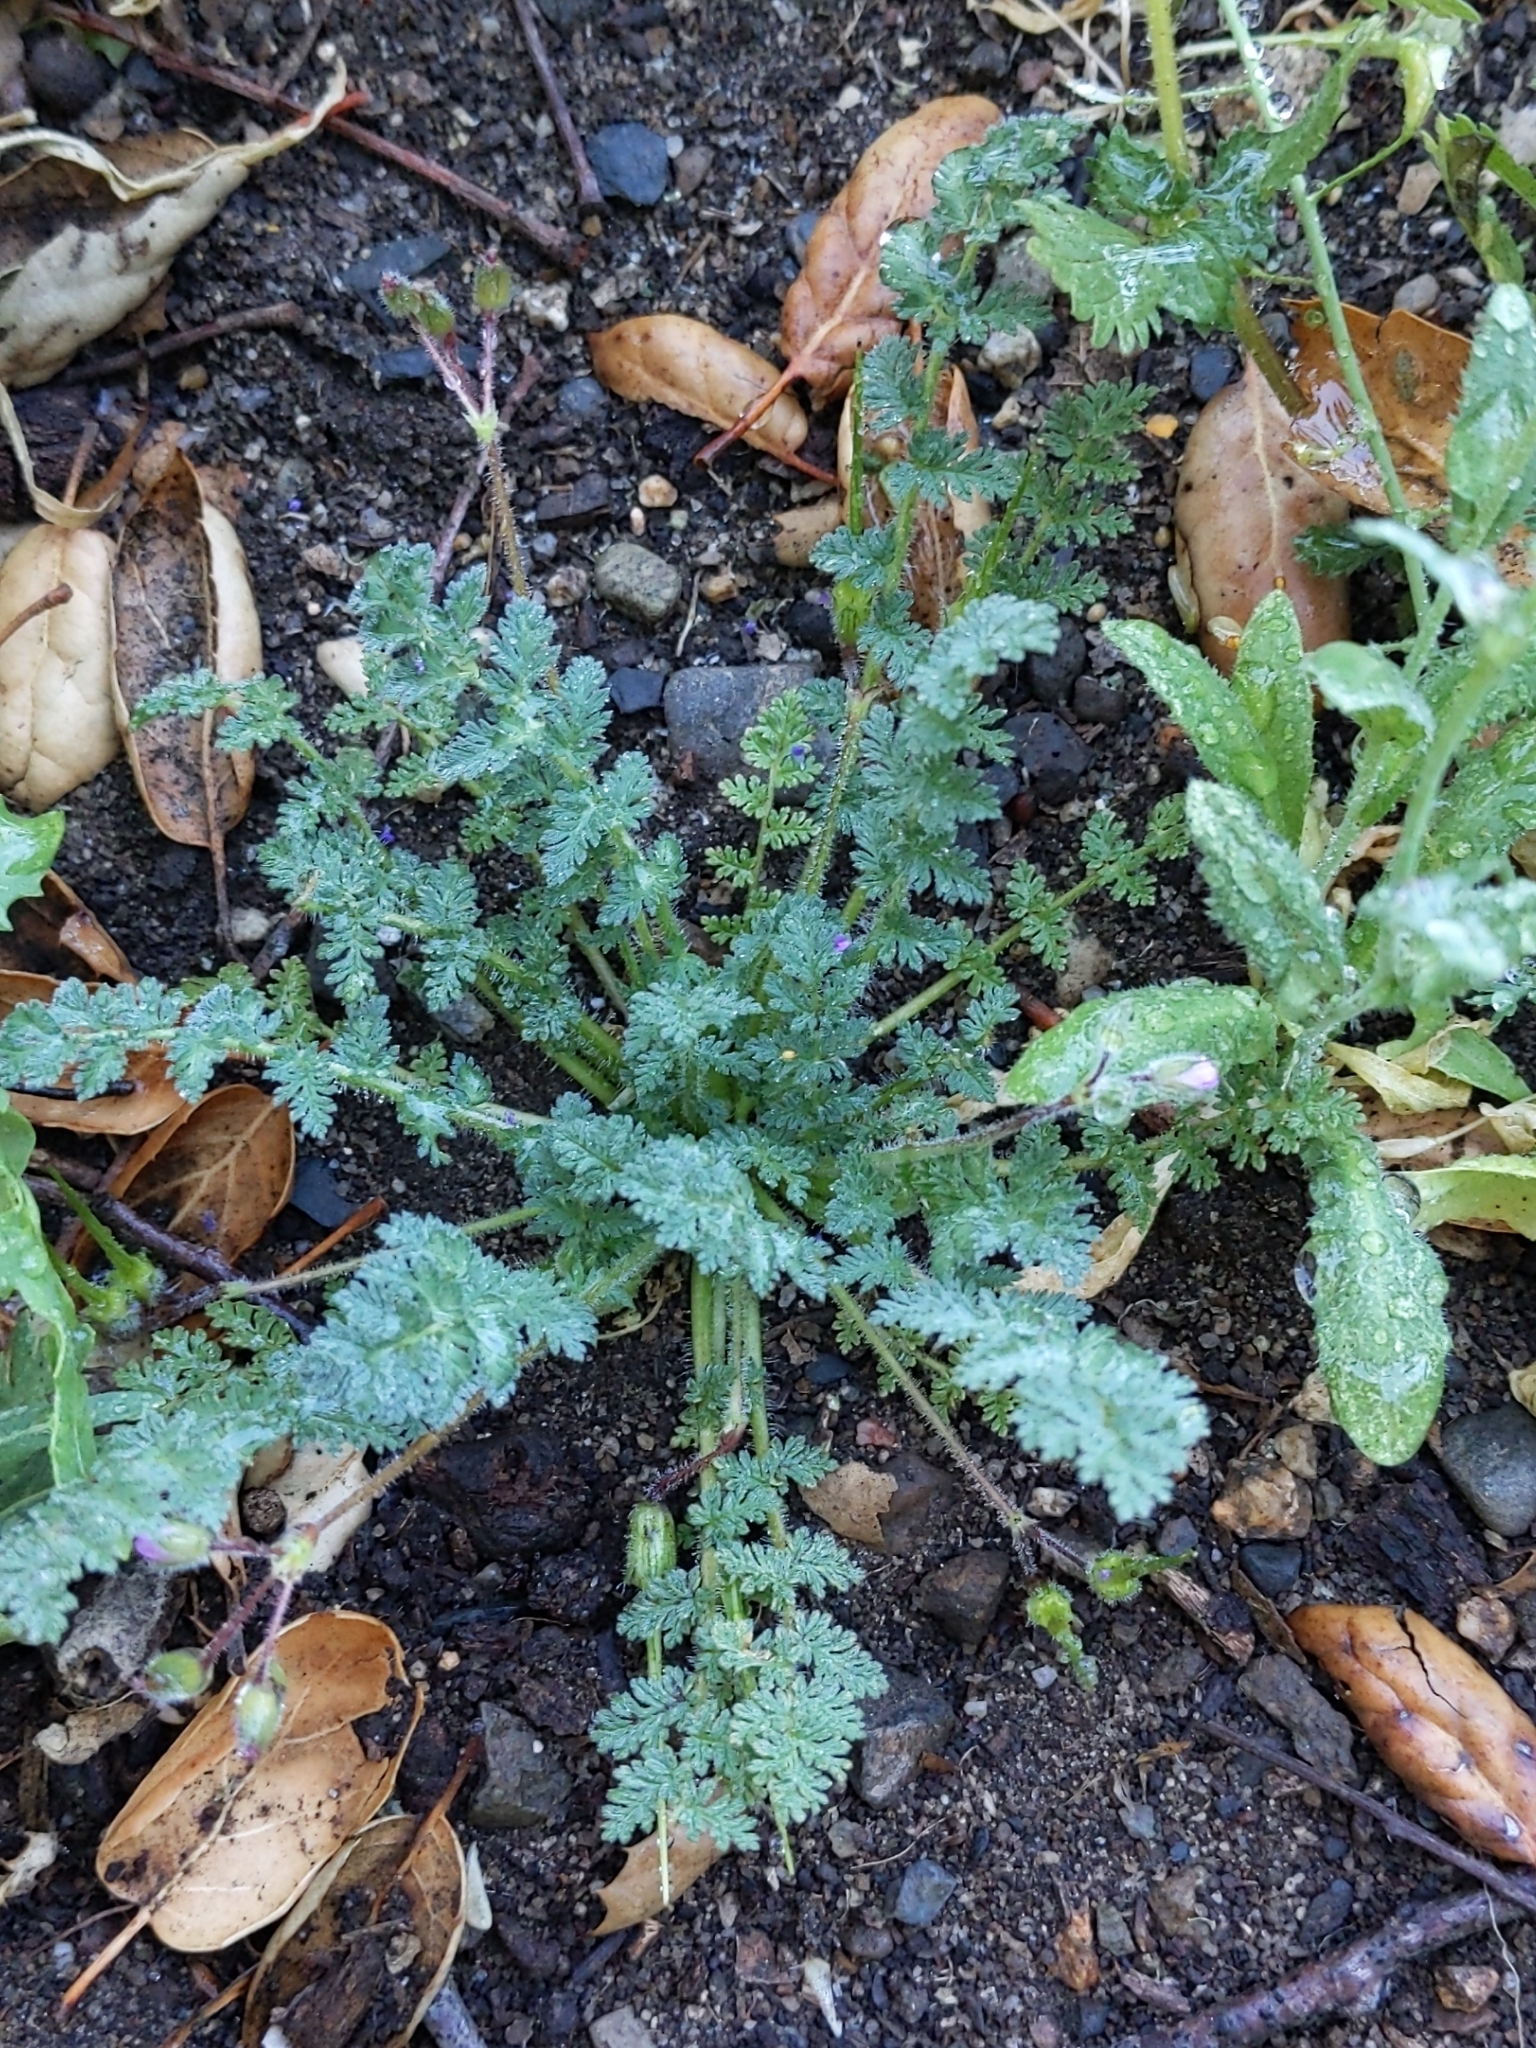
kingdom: Plantae
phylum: Tracheophyta
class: Magnoliopsida
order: Geraniales
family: Geraniaceae
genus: Erodium
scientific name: Erodium cicutarium
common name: Common stork's-bill
